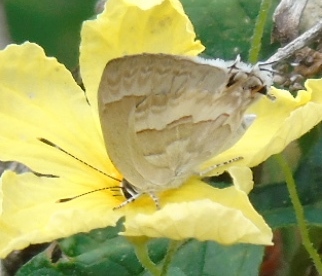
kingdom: Animalia
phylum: Arthropoda
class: Insecta
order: Lepidoptera
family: Lycaenidae
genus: Strymon
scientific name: Strymon albata
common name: White scrub-hairstreak
